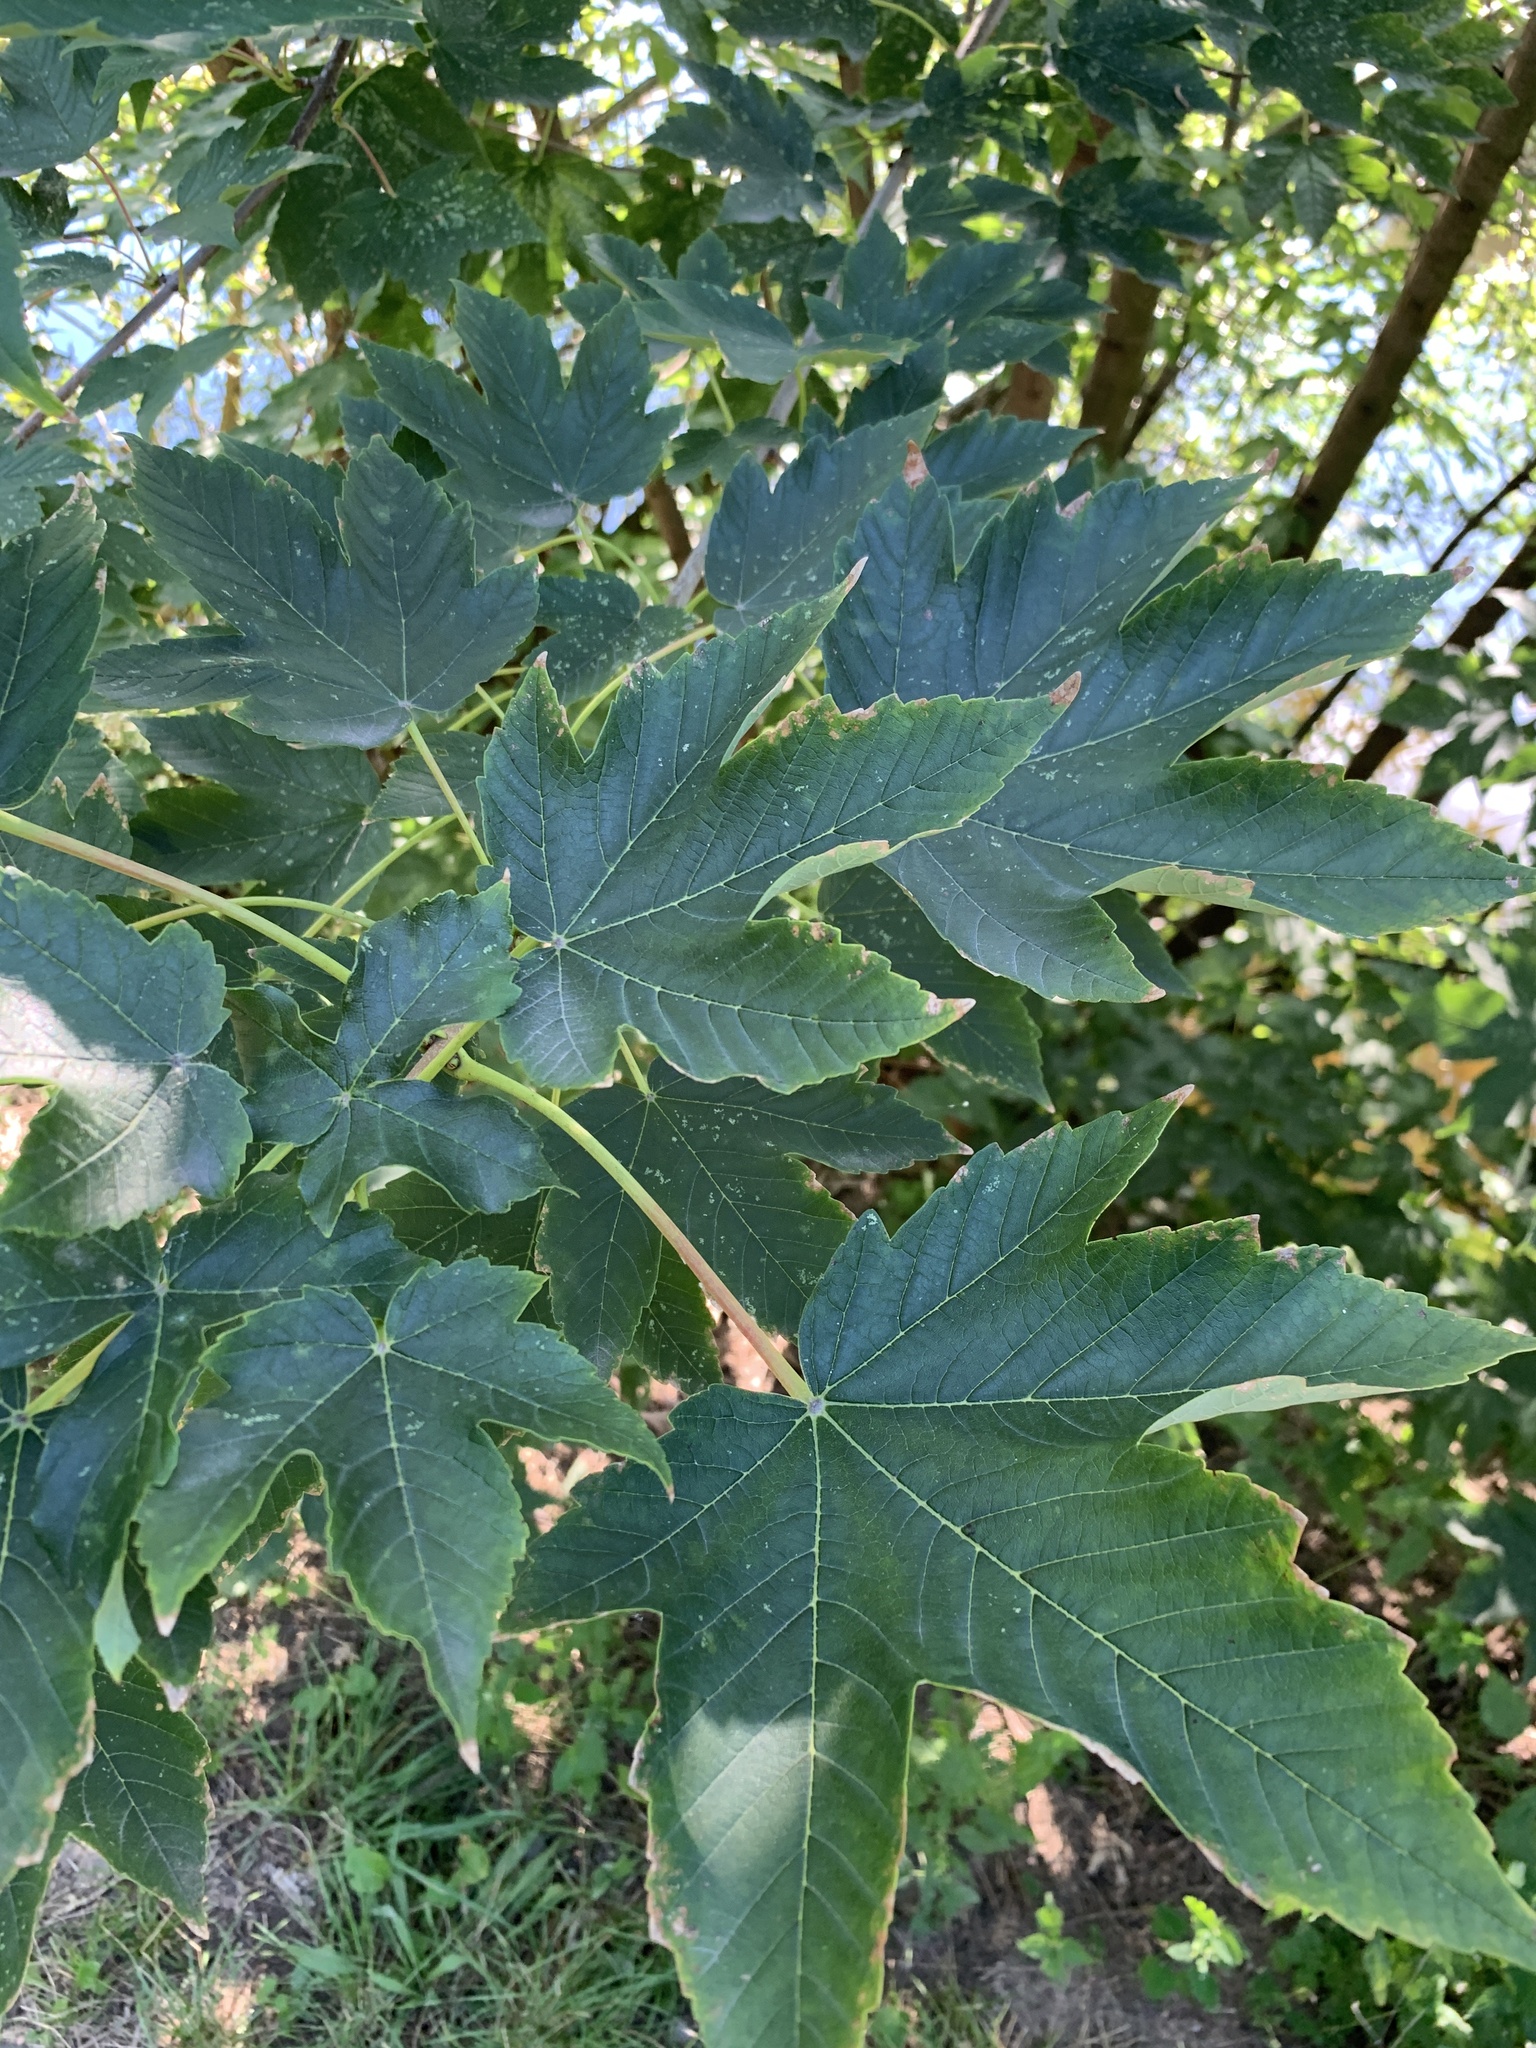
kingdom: Plantae
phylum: Tracheophyta
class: Magnoliopsida
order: Sapindales
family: Sapindaceae
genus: Acer
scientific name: Acer pseudoplatanus
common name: Sycamore
